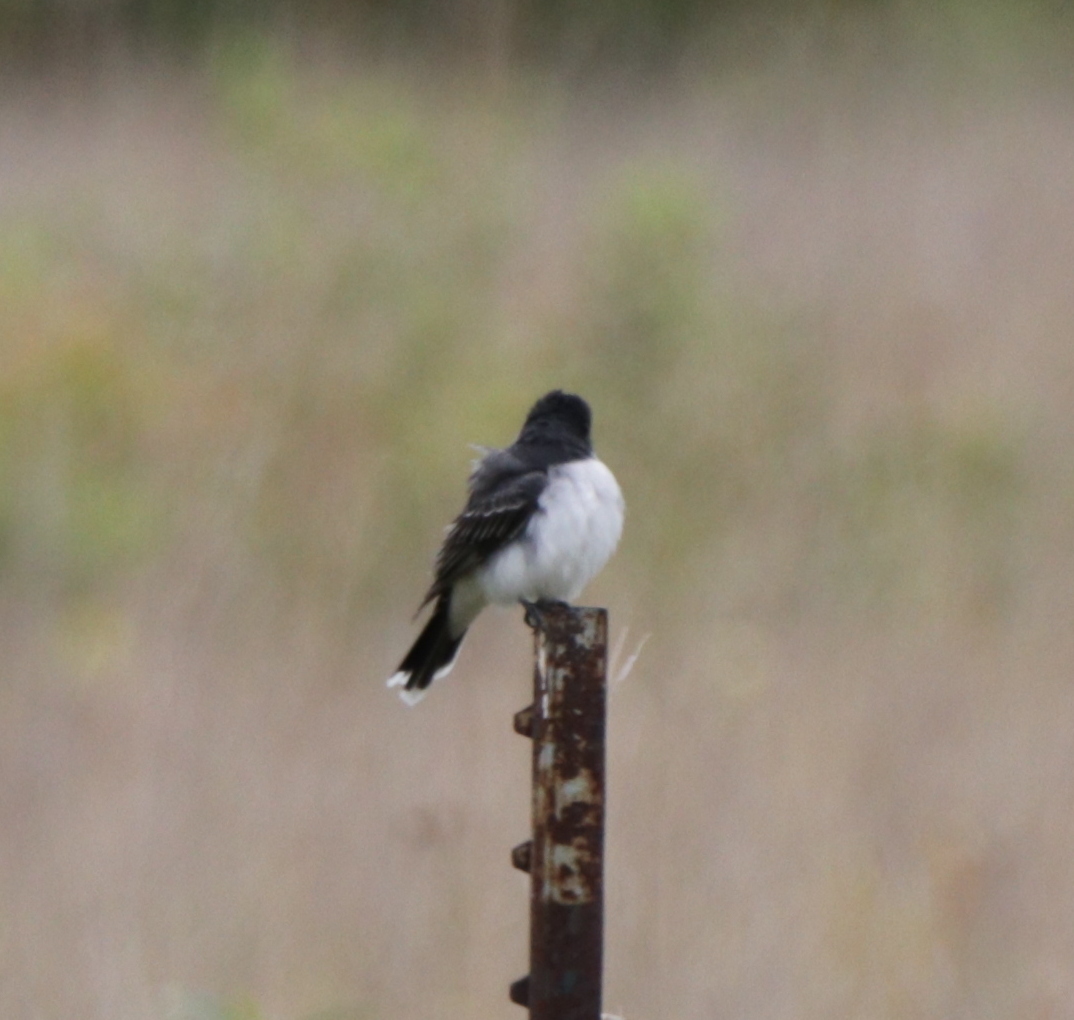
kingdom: Animalia
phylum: Chordata
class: Aves
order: Passeriformes
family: Tyrannidae
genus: Tyrannus
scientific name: Tyrannus tyrannus
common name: Eastern kingbird
